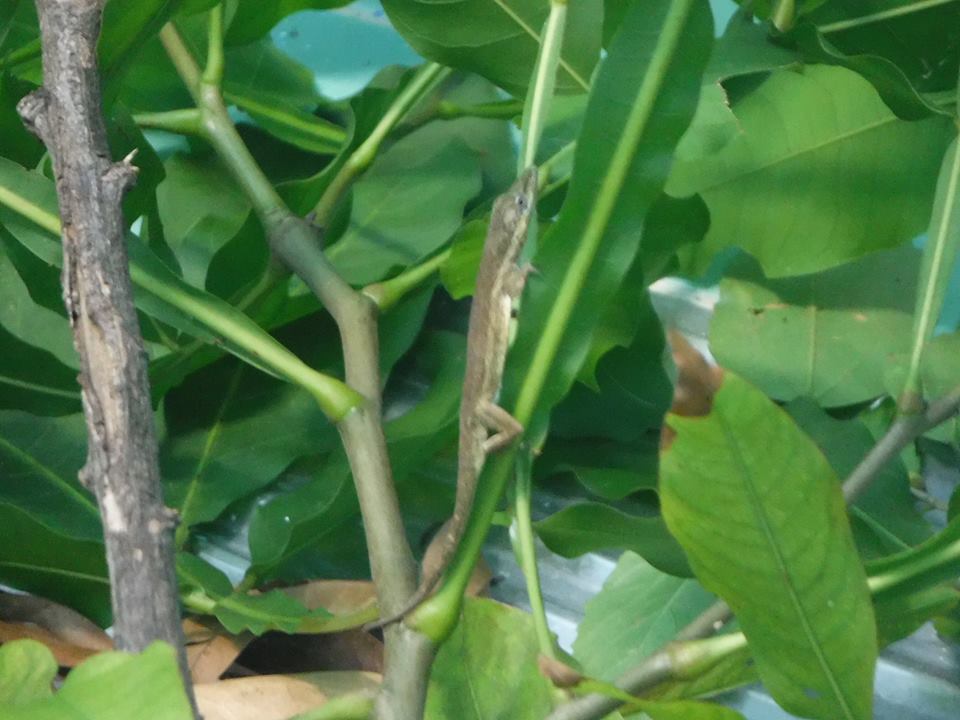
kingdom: Animalia
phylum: Chordata
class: Squamata
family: Dactyloidae
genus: Anolis
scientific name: Anolis angusticeps
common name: Cuban twig anole
